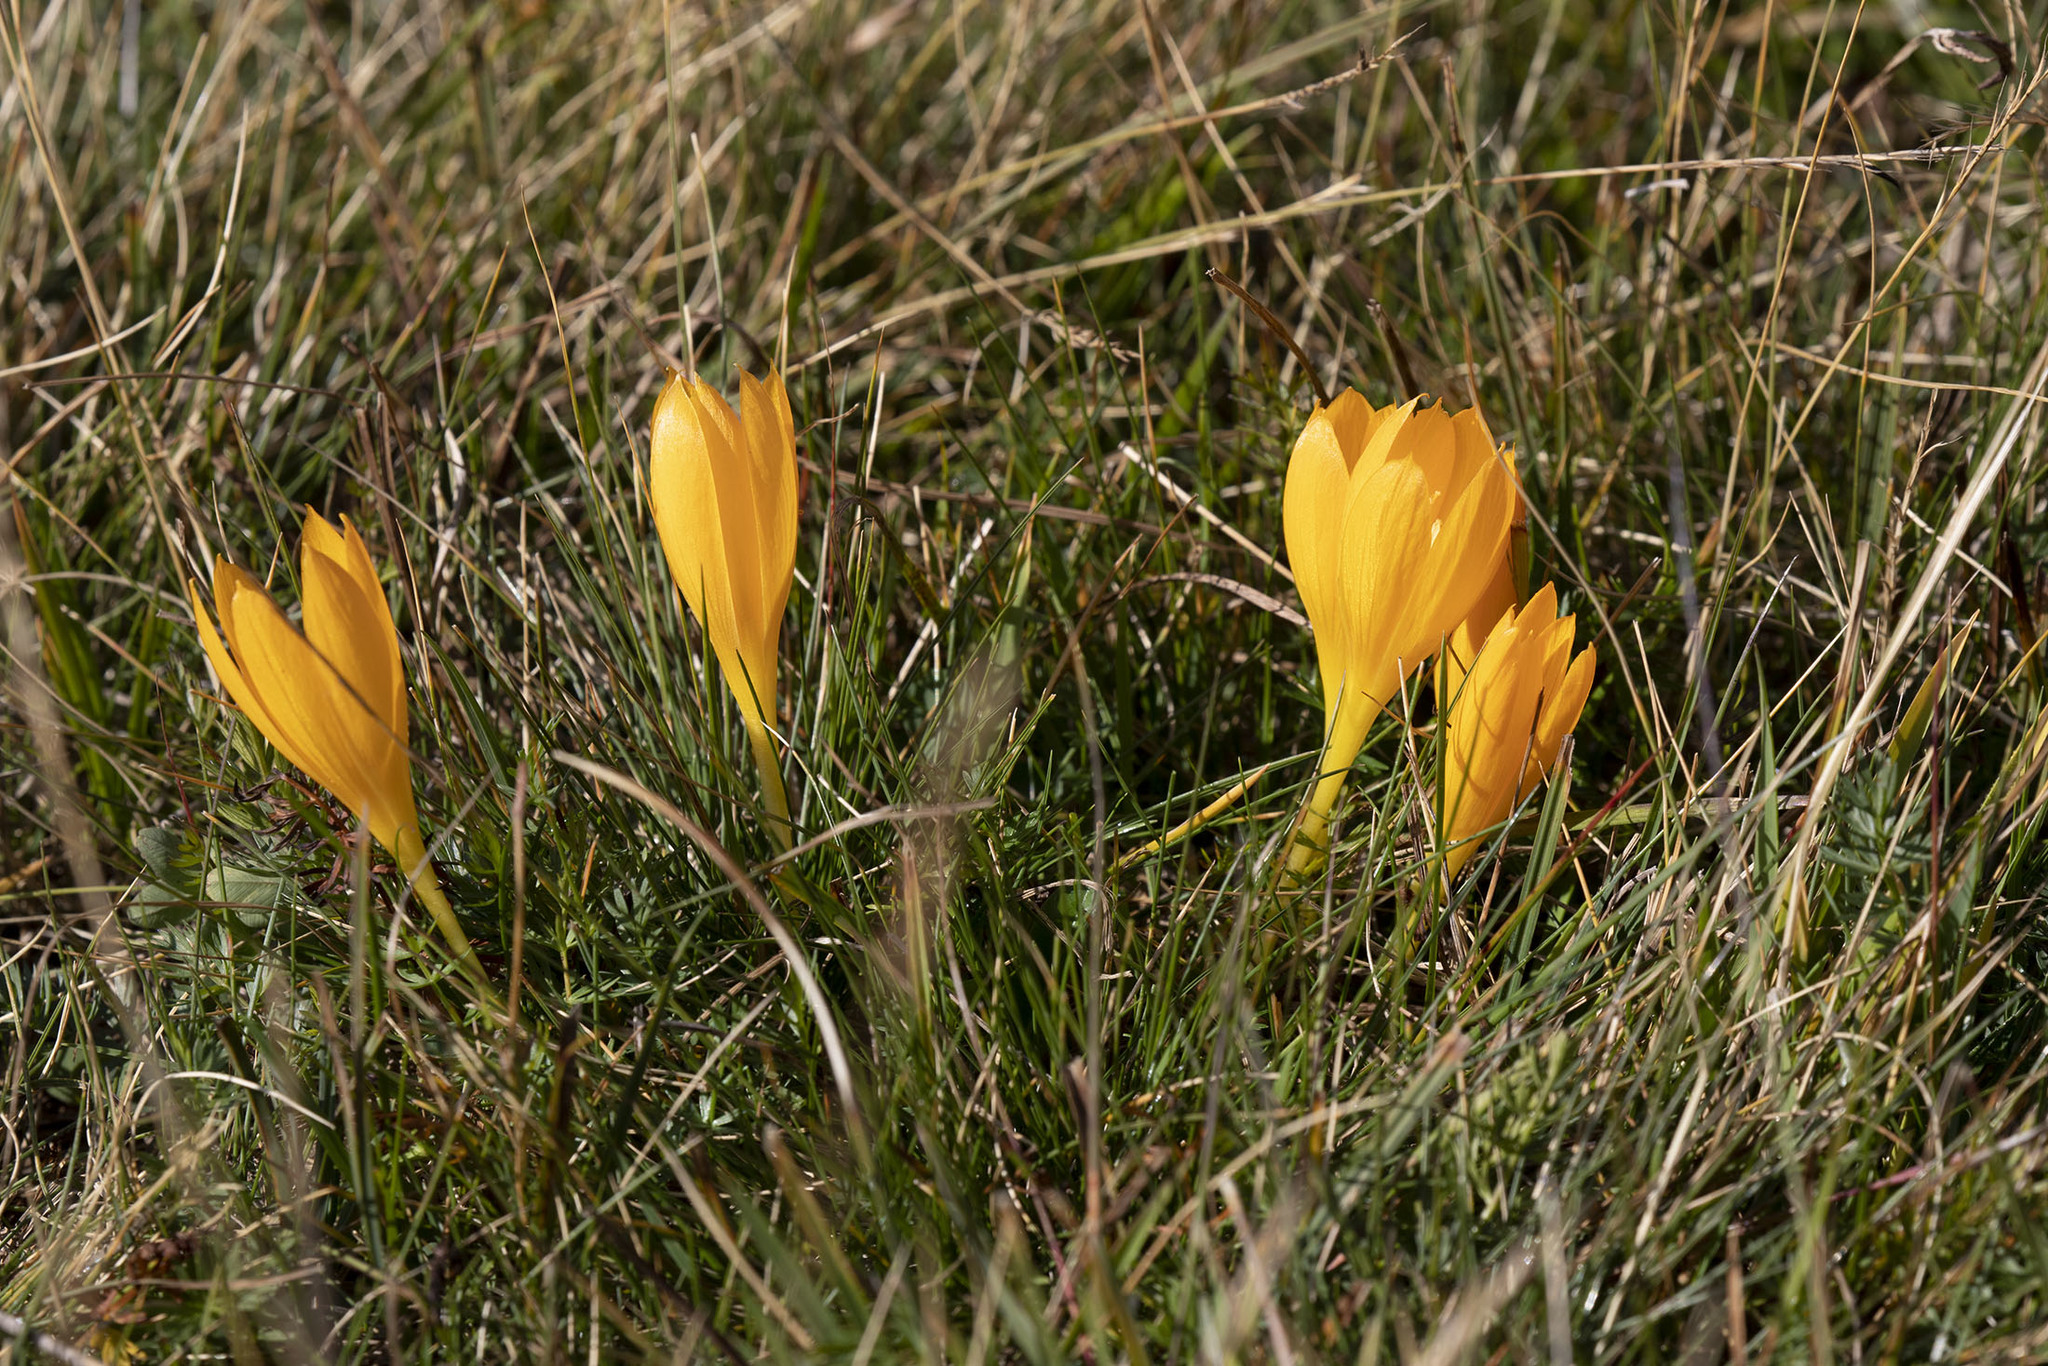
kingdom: Plantae
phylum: Tracheophyta
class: Liliopsida
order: Asparagales
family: Iridaceae
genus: Crocus
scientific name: Crocus scharojanii
